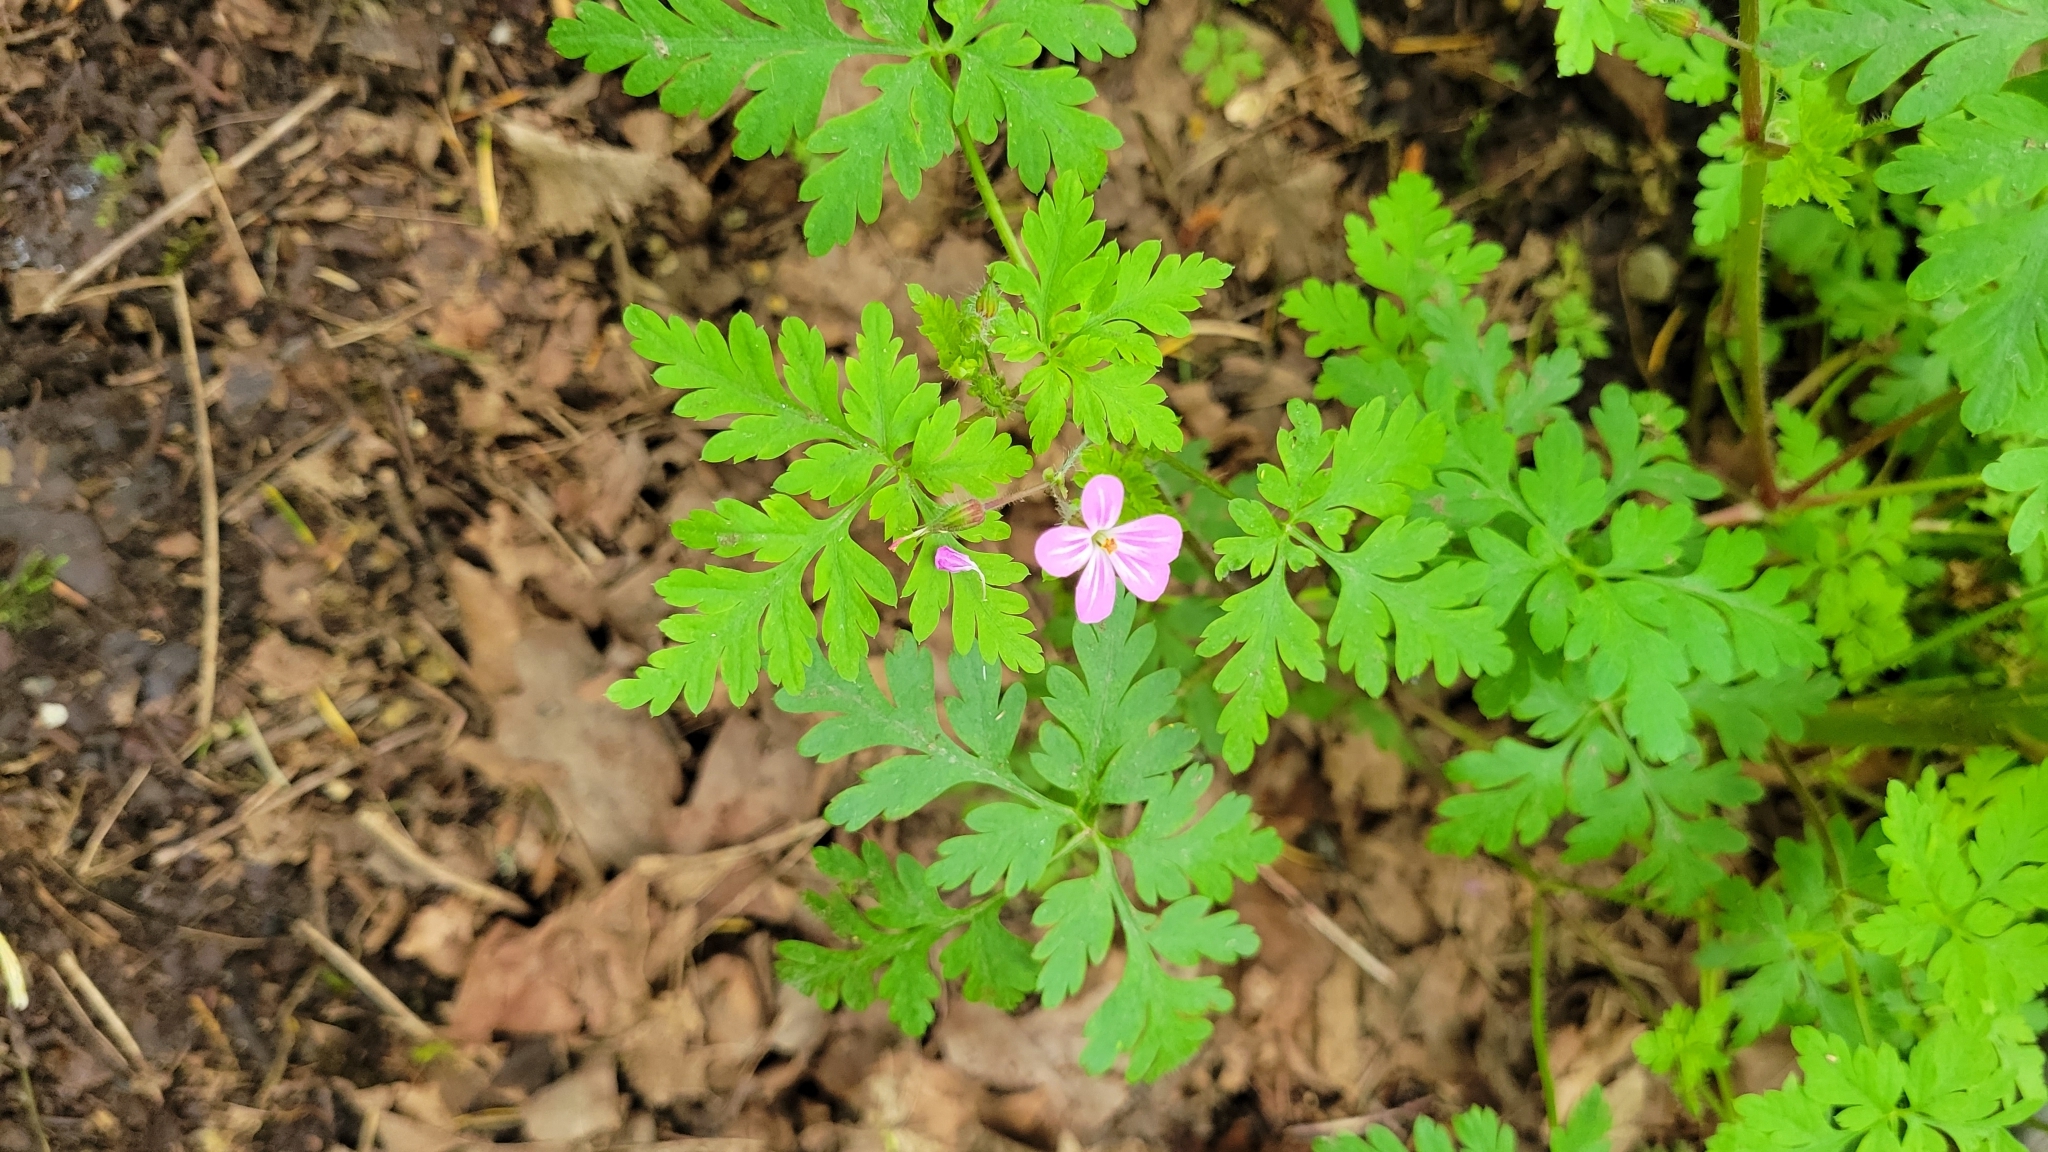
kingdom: Plantae
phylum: Tracheophyta
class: Magnoliopsida
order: Geraniales
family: Geraniaceae
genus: Geranium
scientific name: Geranium robertianum
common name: Herb-robert
